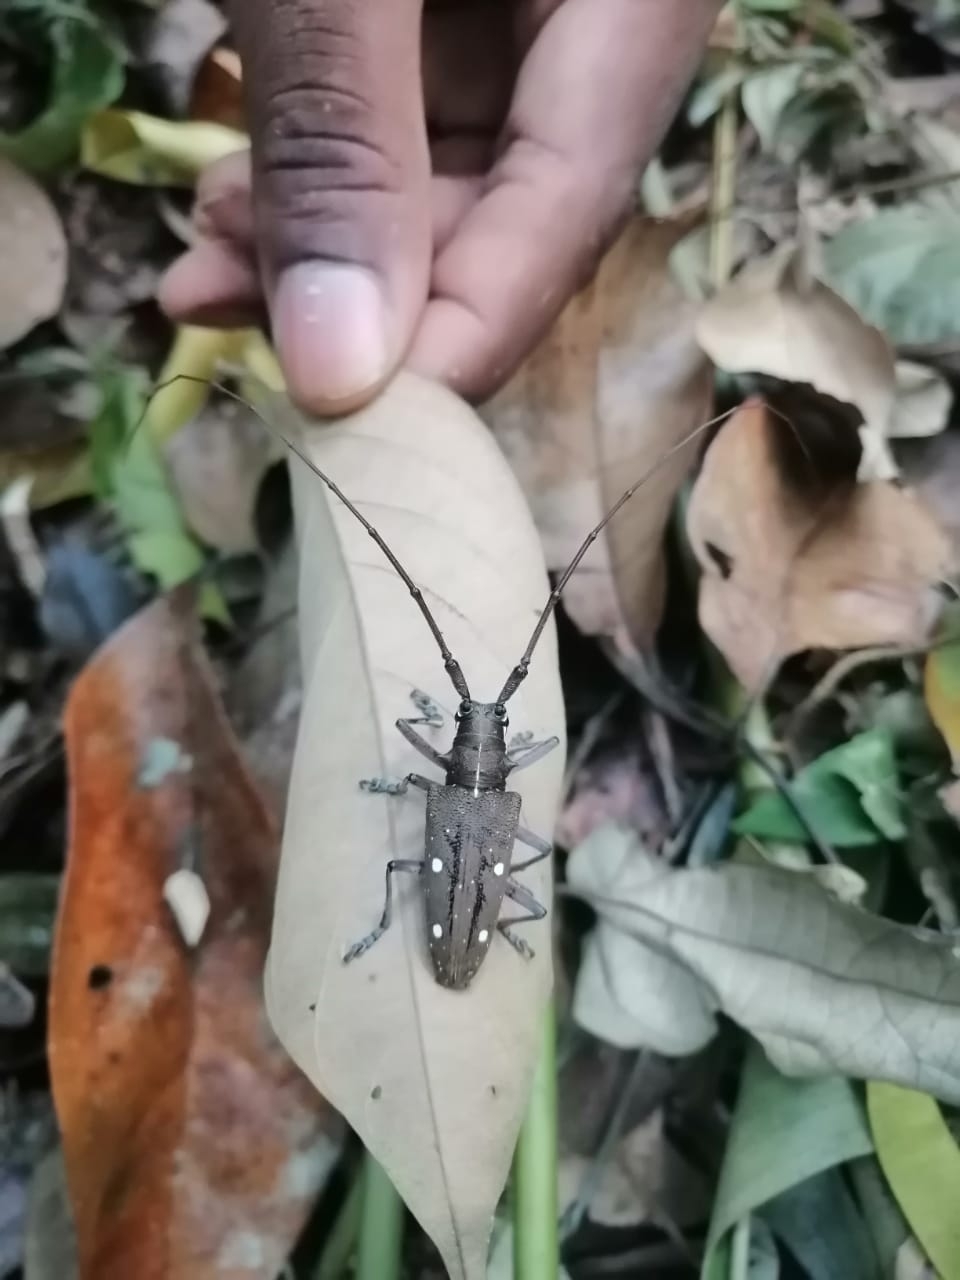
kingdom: Animalia
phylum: Arthropoda
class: Insecta
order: Coleoptera
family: Cerambycidae
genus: Taeniotes
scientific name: Taeniotes xanthostictus
